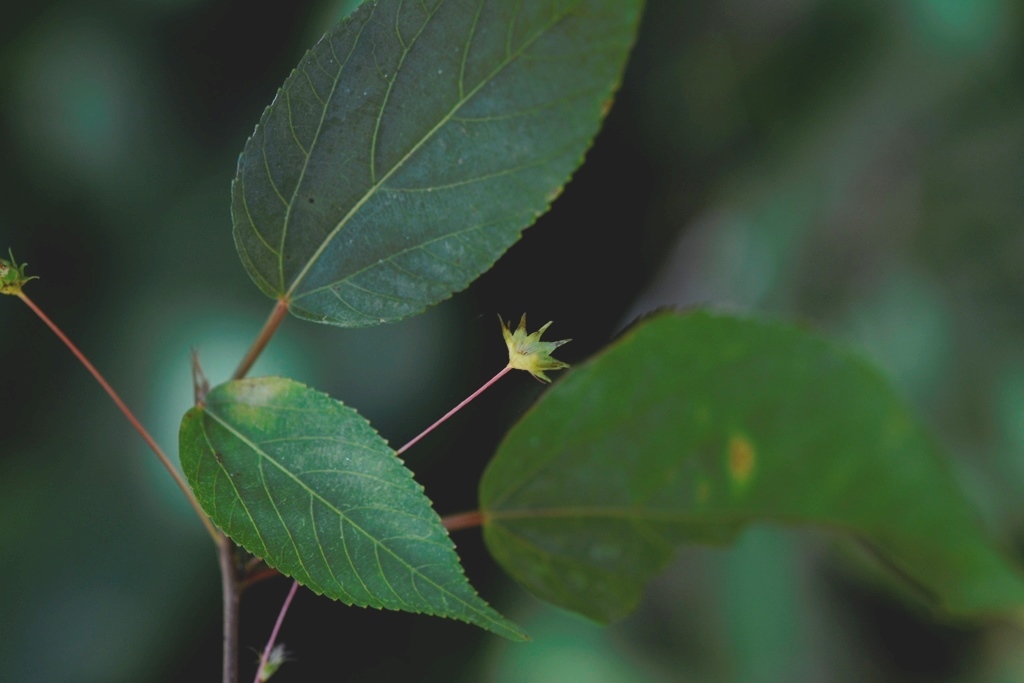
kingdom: Plantae
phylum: Tracheophyta
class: Magnoliopsida
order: Malpighiales
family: Euphorbiaceae
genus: Acalypha
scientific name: Acalypha leptopoda
